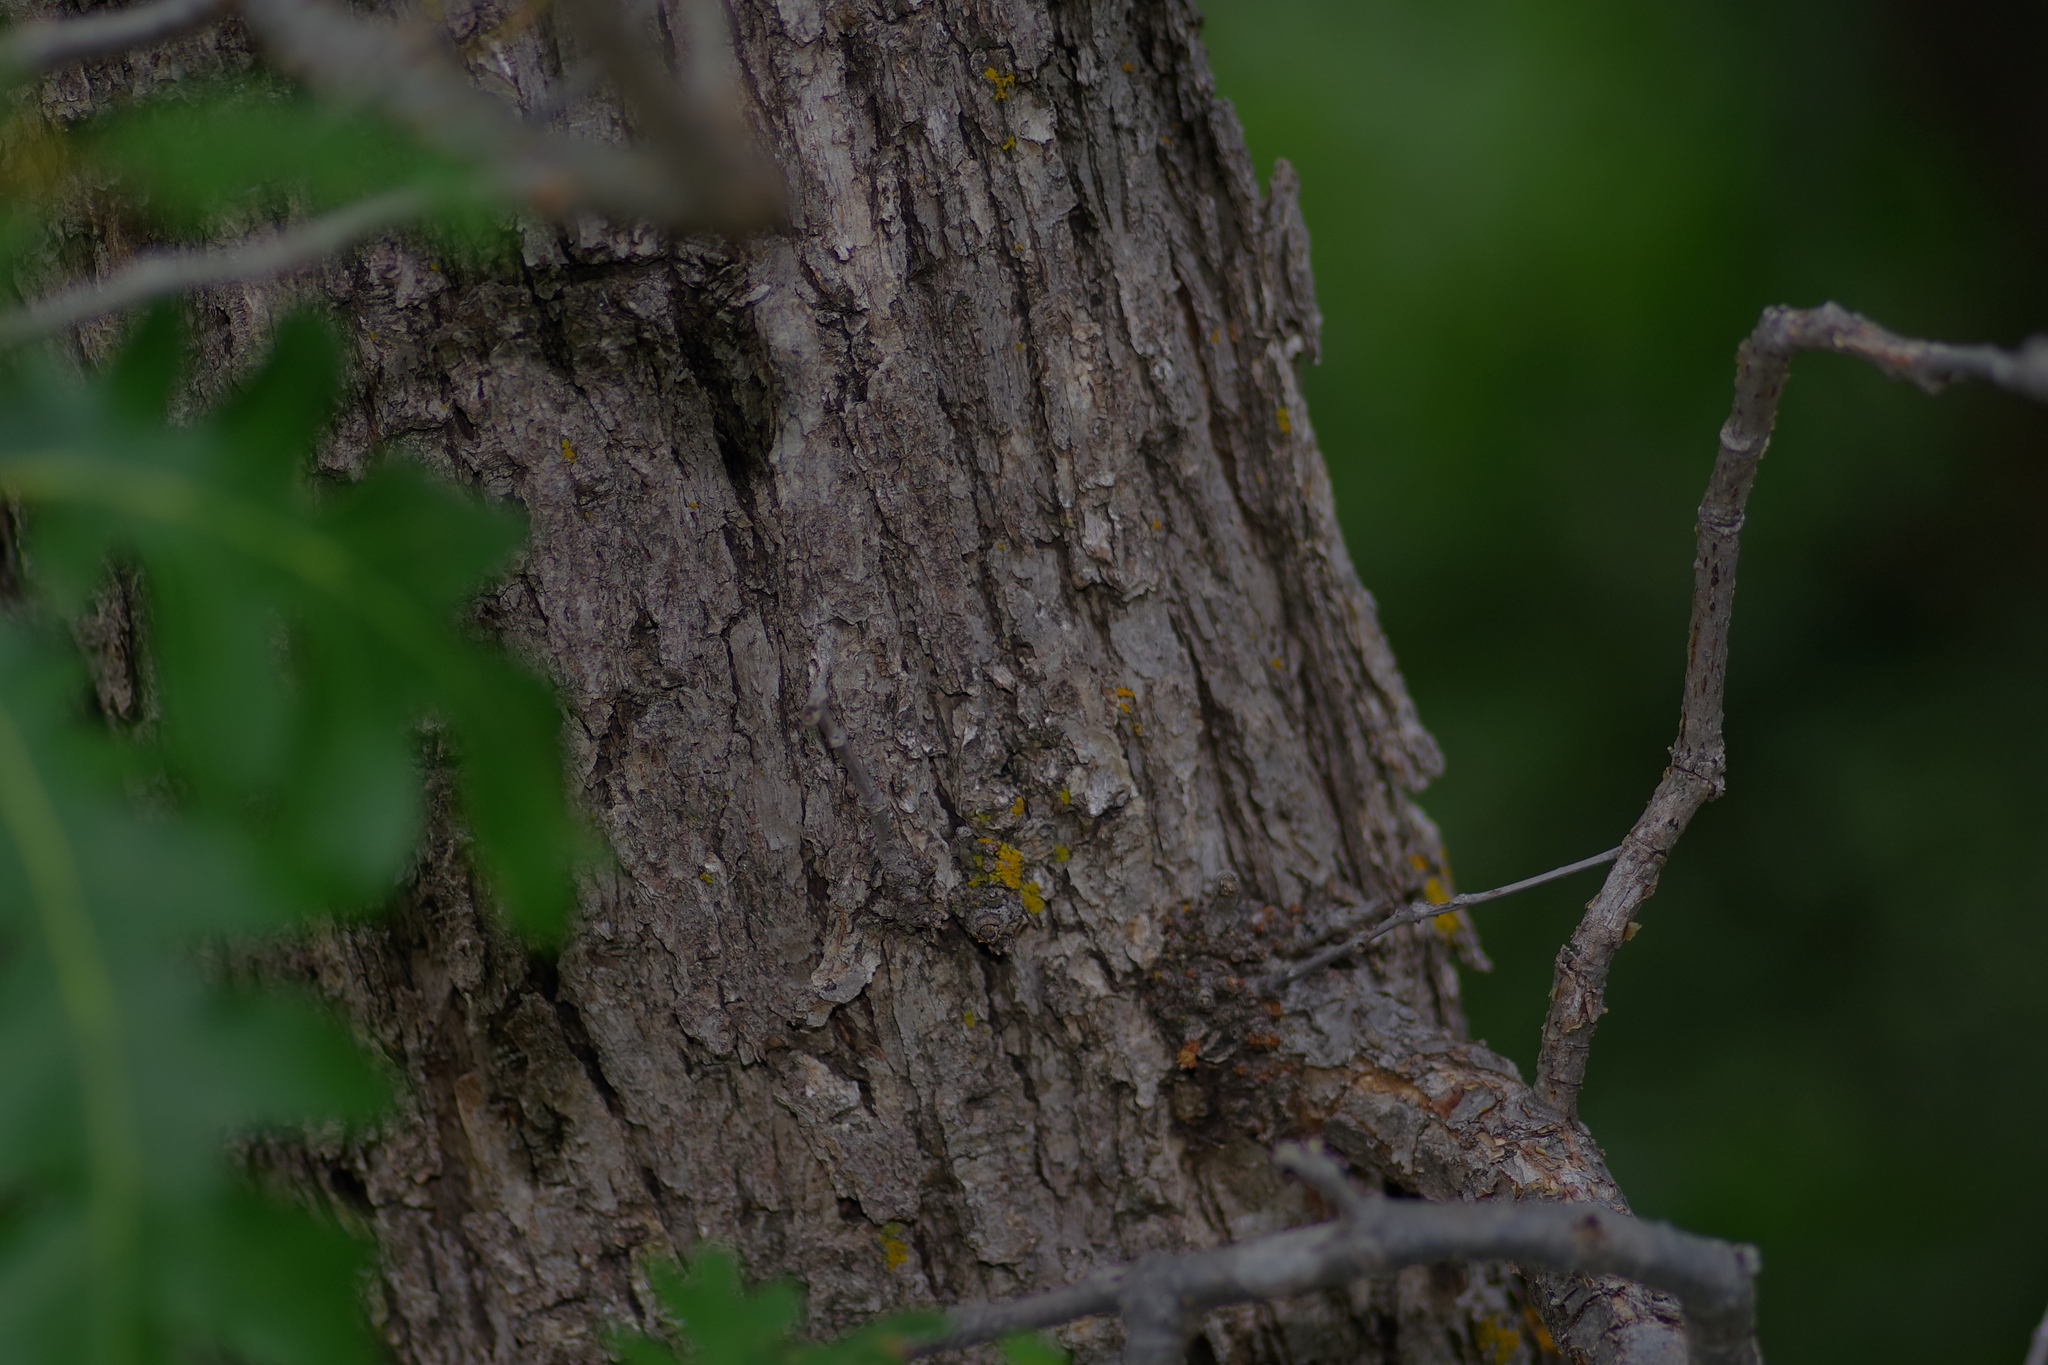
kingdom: Plantae
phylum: Tracheophyta
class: Magnoliopsida
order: Fagales
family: Fagaceae
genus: Quercus
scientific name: Quercus gambelii
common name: Gambel oak
